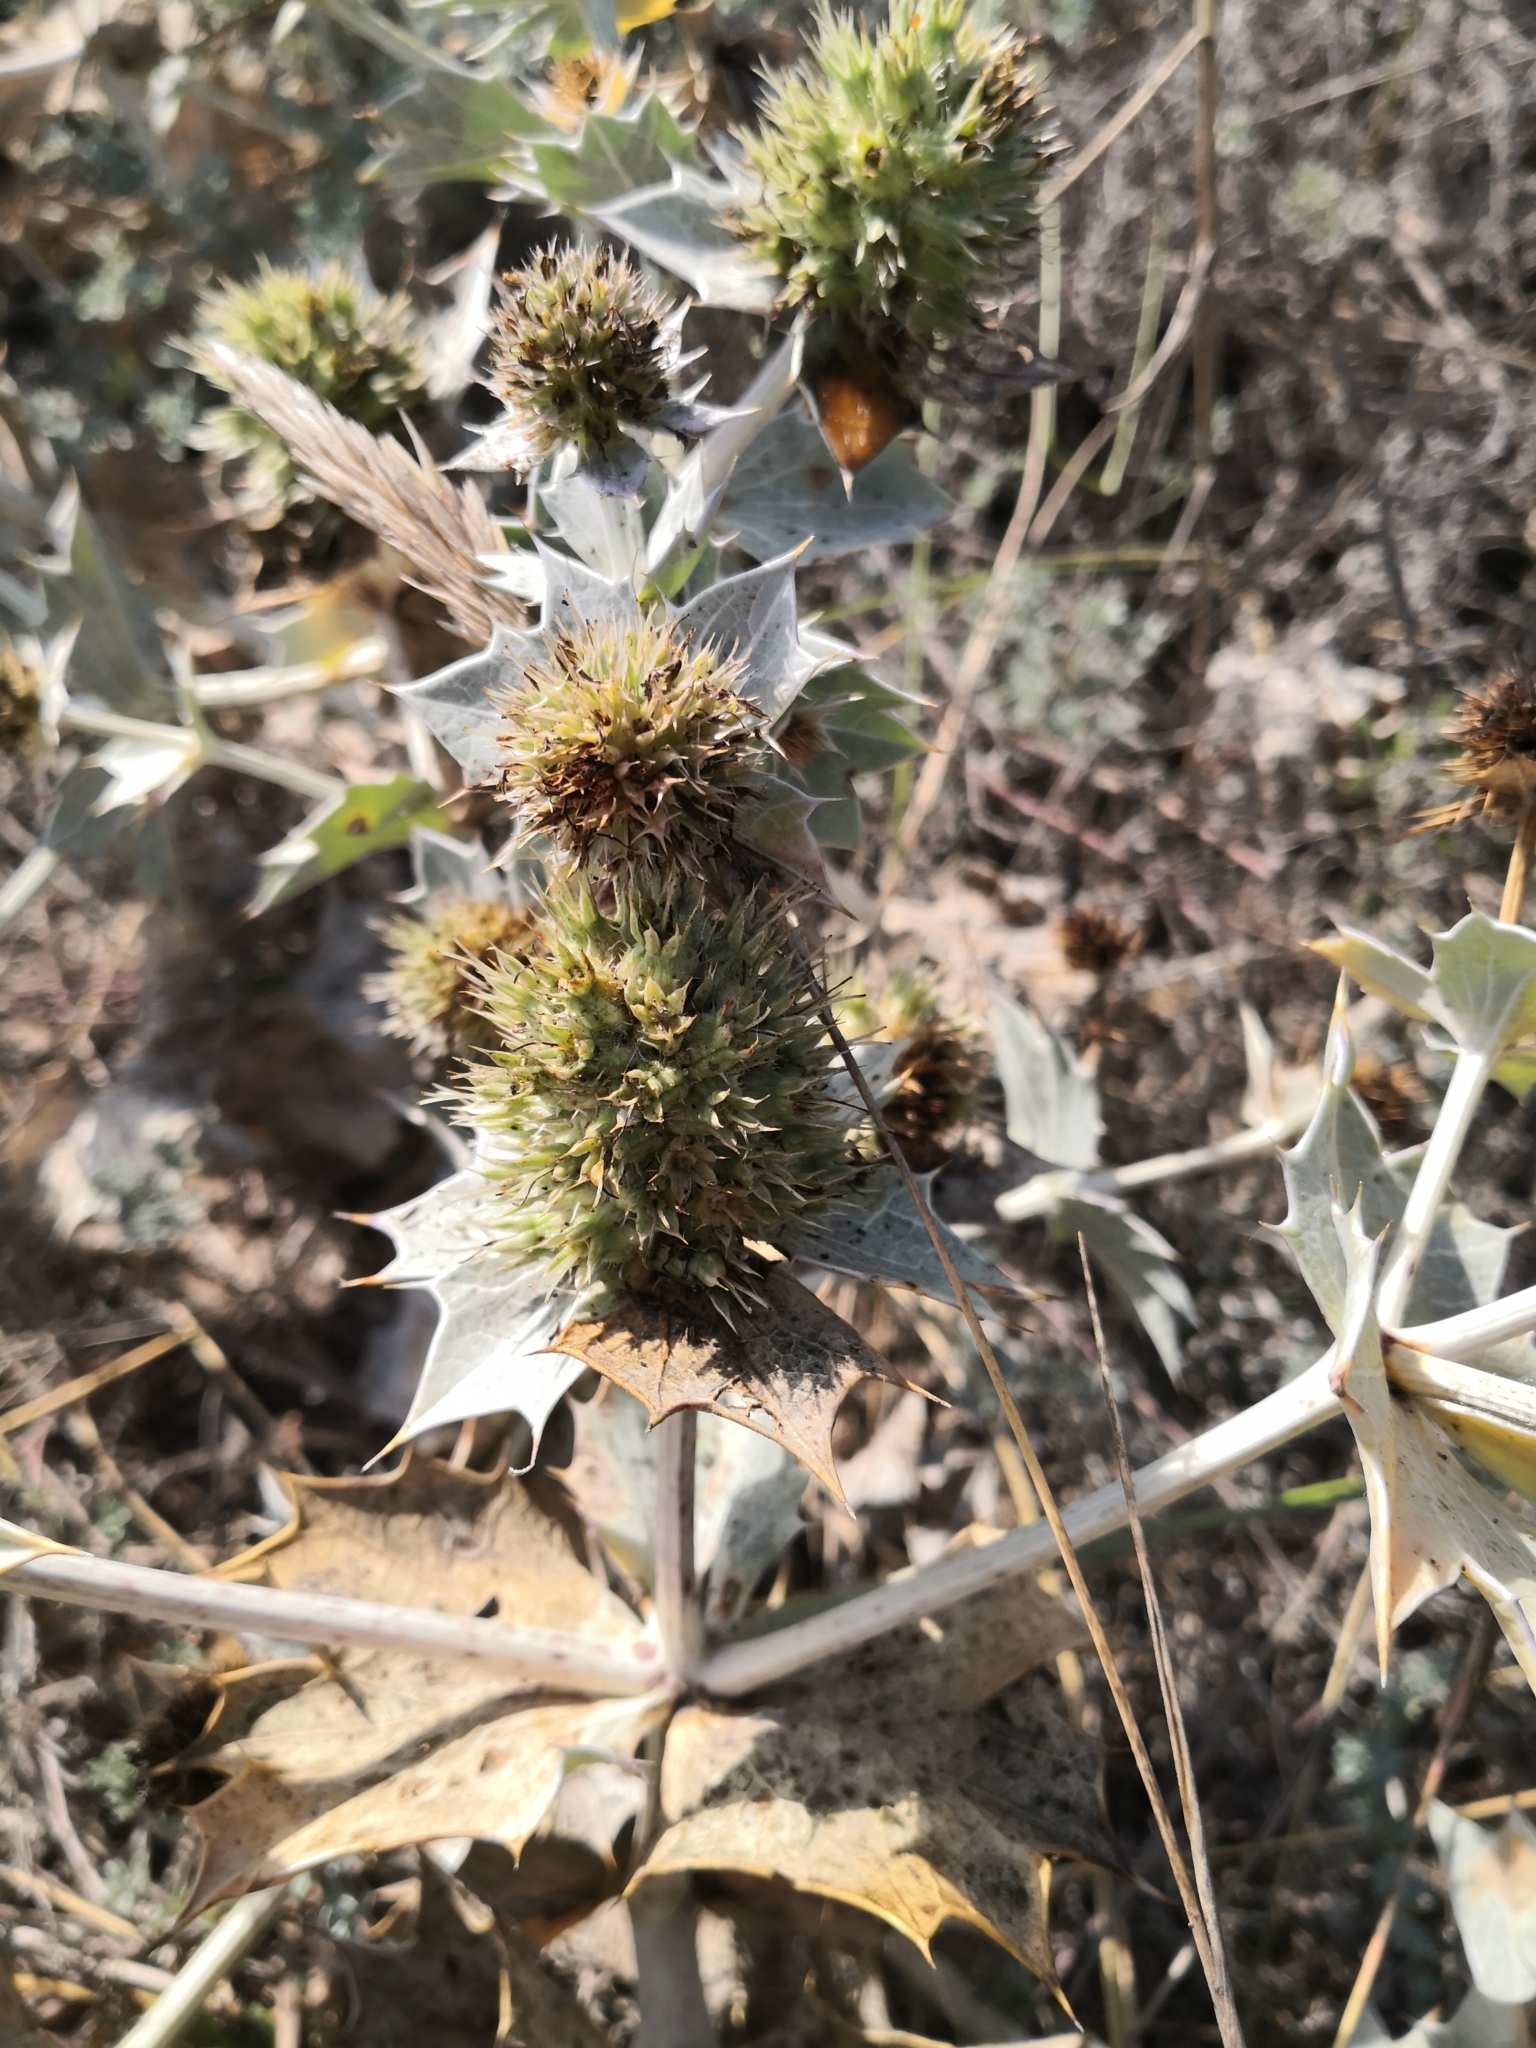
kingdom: Plantae
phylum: Tracheophyta
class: Magnoliopsida
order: Apiales
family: Apiaceae
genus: Eryngium
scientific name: Eryngium maritimum
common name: Sea-holly
